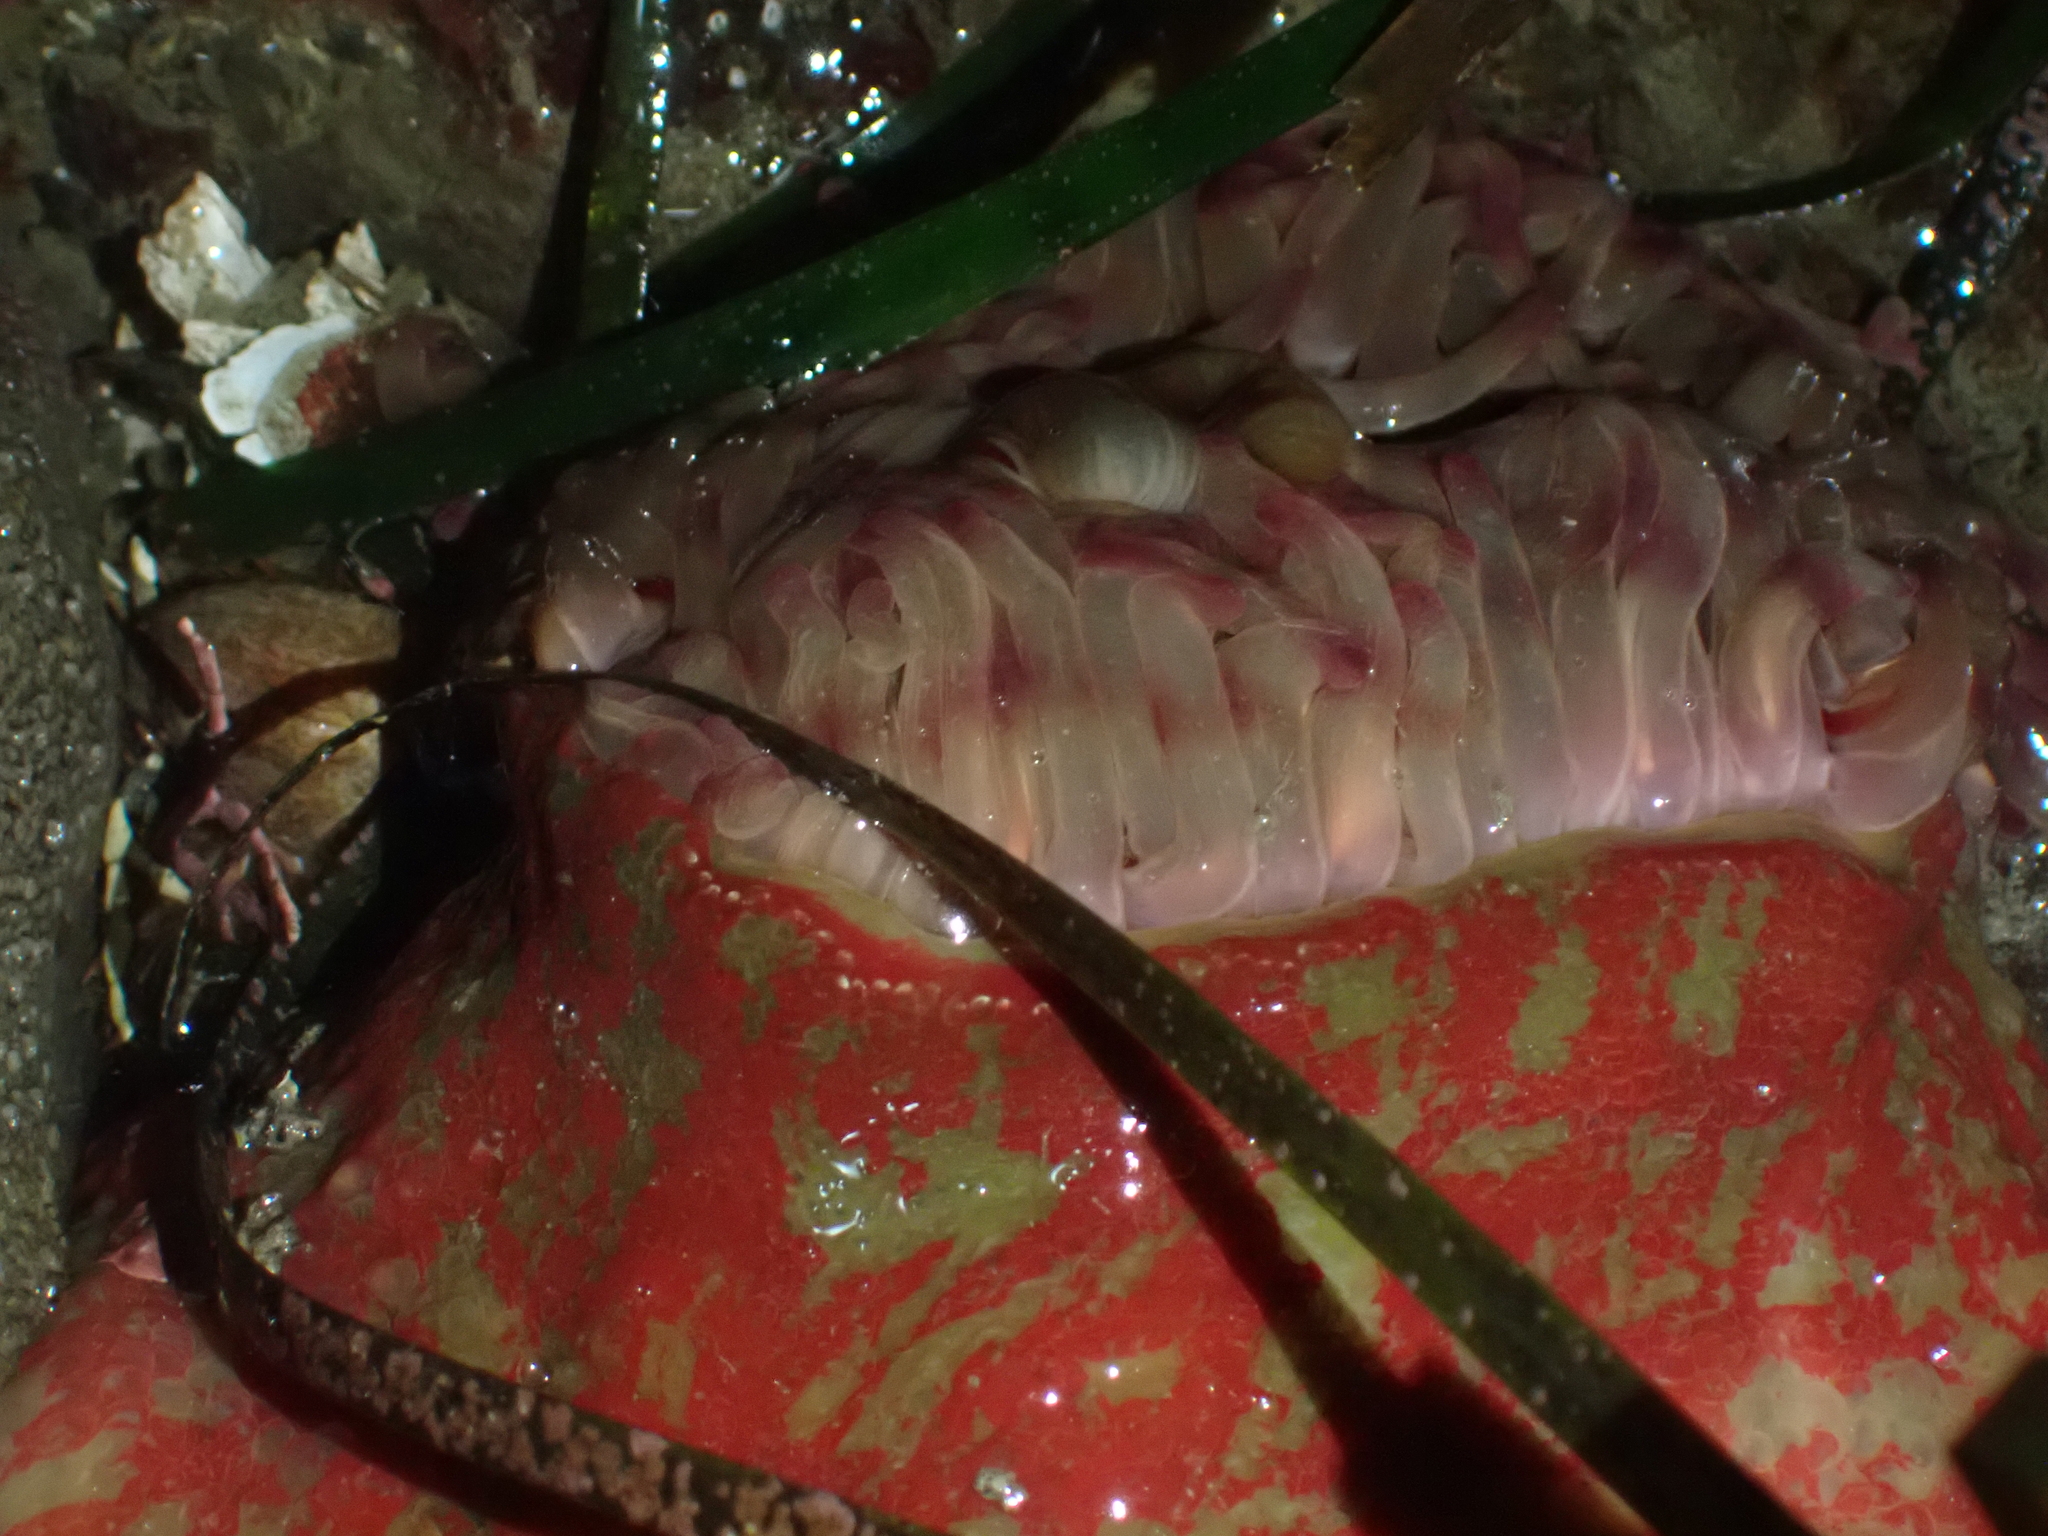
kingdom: Animalia
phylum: Cnidaria
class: Anthozoa
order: Actiniaria
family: Actiniidae
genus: Urticina
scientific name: Urticina grebelnyi
